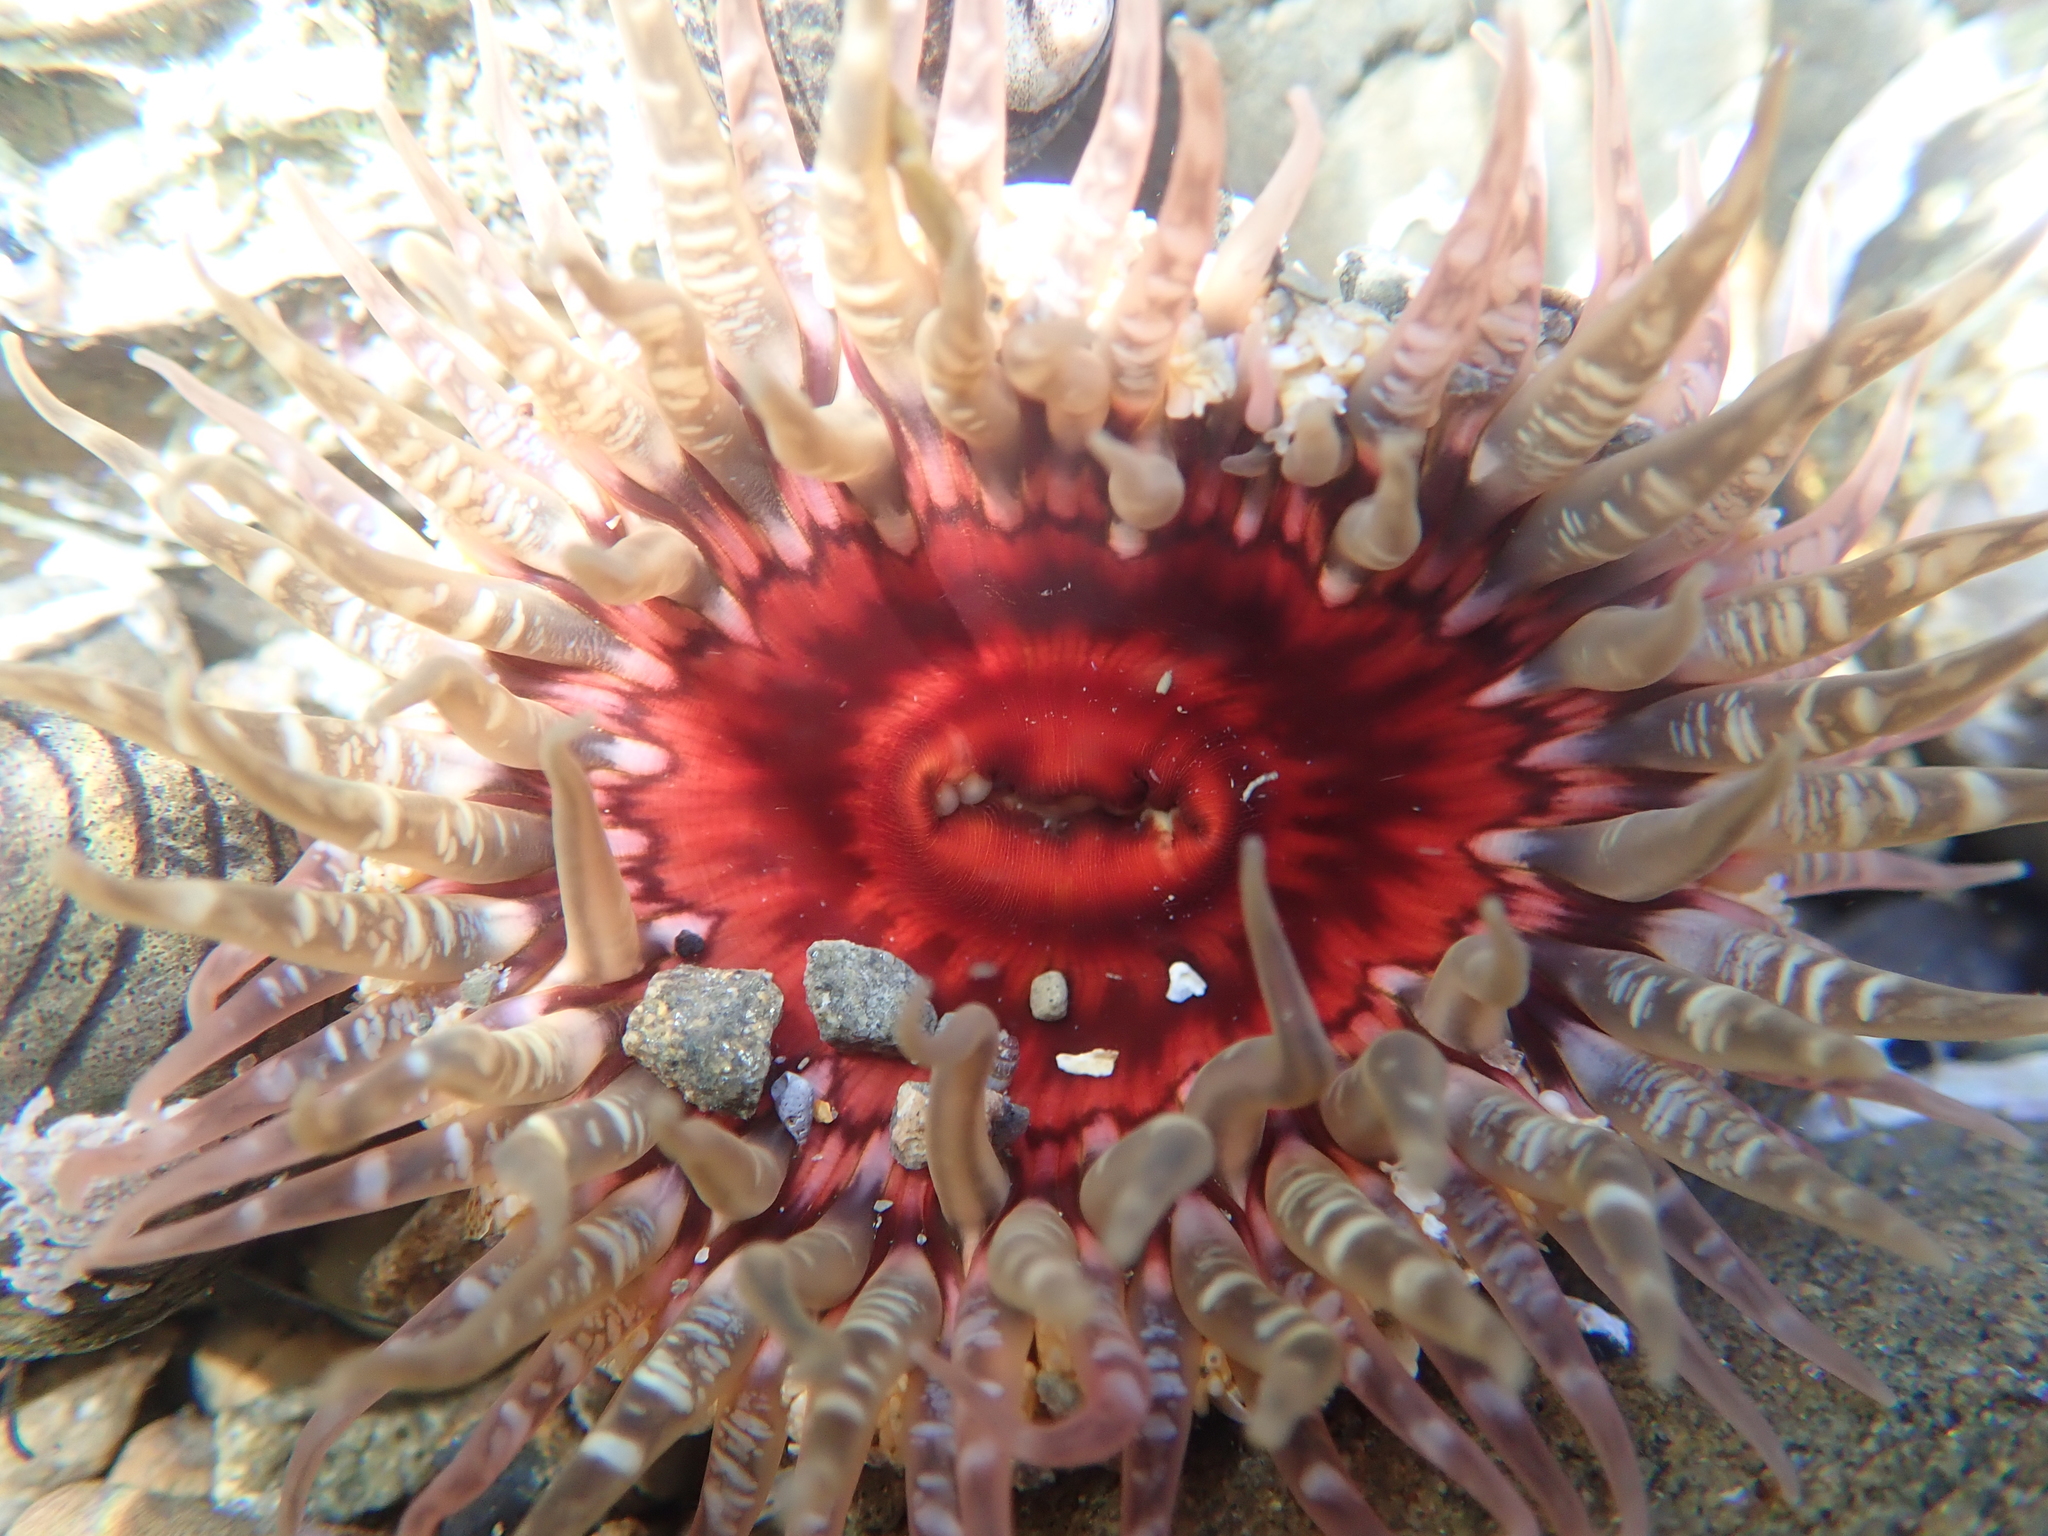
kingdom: Animalia
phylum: Cnidaria
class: Anthozoa
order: Actiniaria
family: Actiniidae
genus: Oulactis
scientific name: Oulactis muscosa
